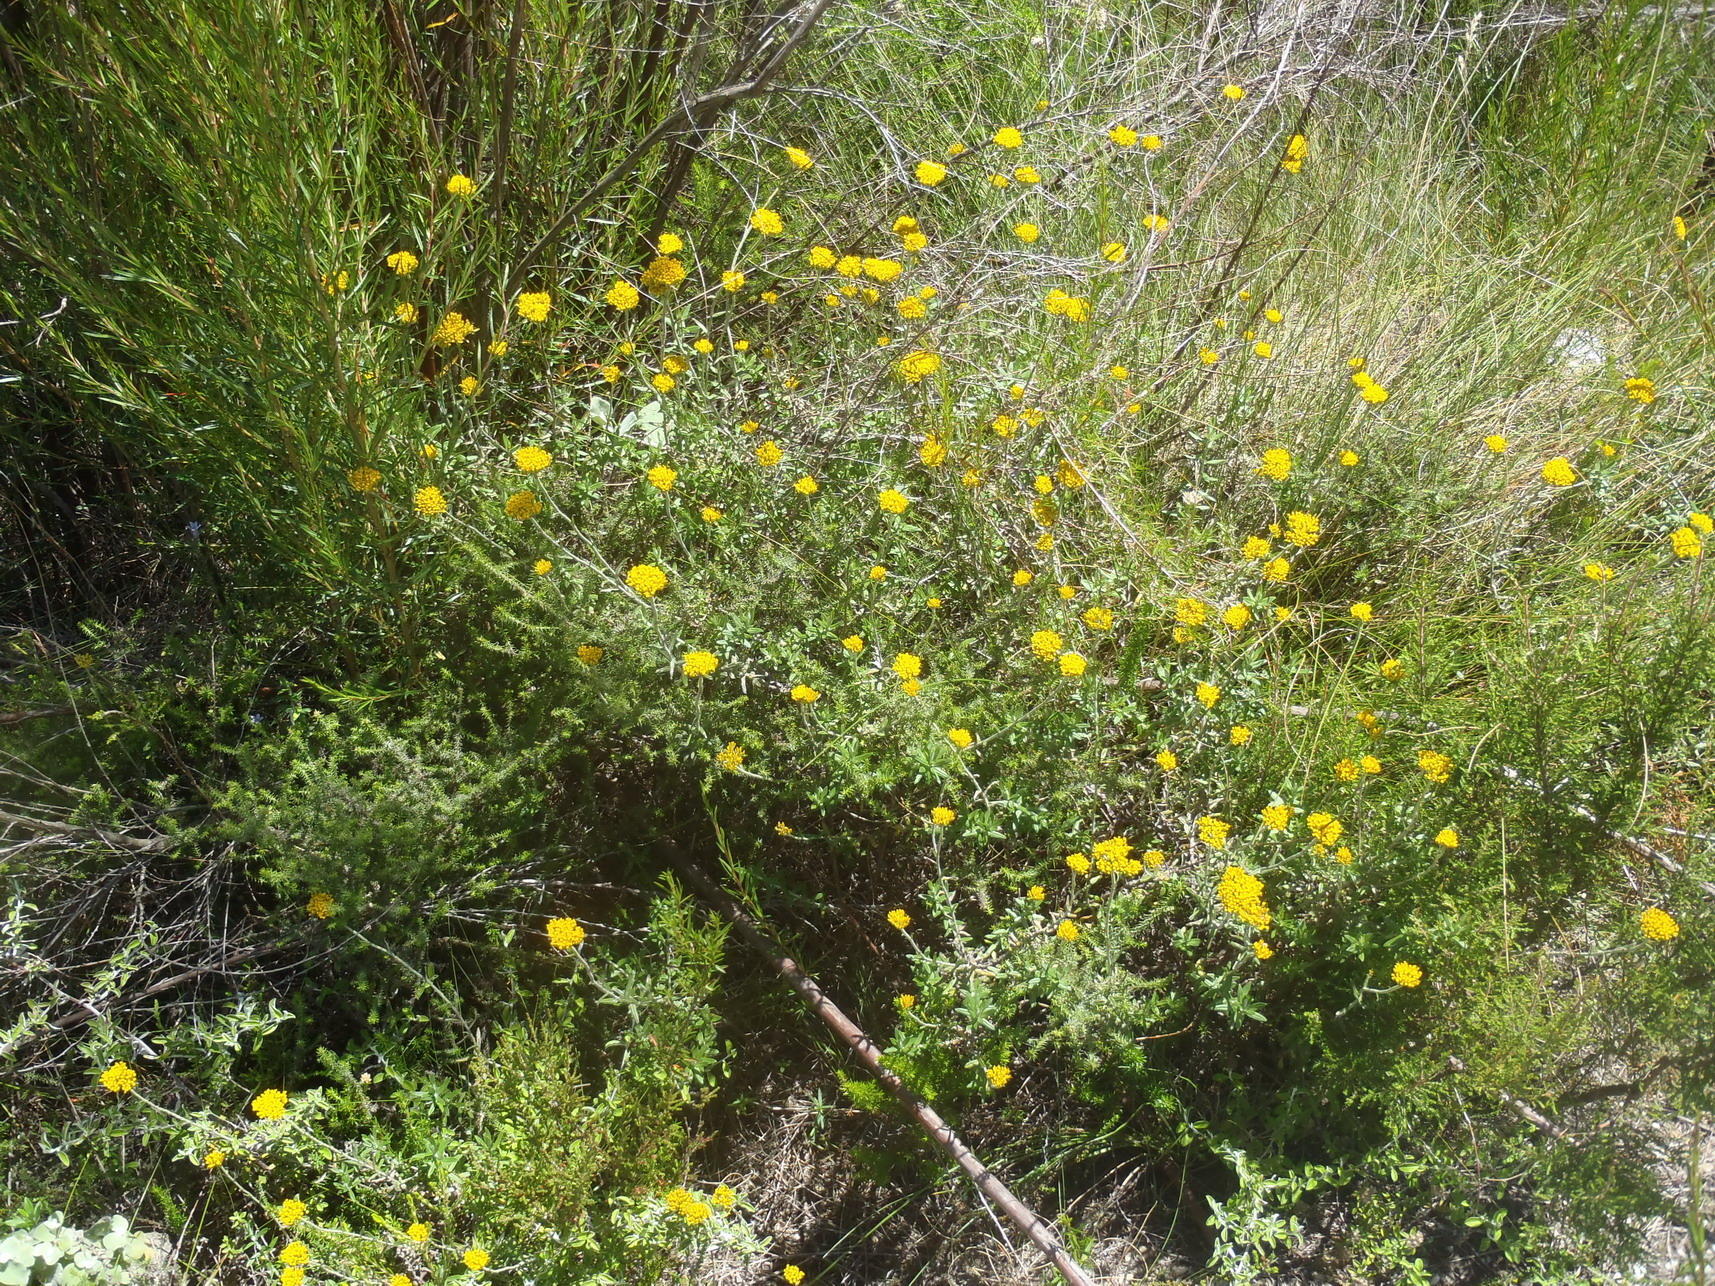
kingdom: Plantae
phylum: Tracheophyta
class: Magnoliopsida
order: Asterales
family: Asteraceae
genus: Helichrysum
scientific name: Helichrysum cymosum
